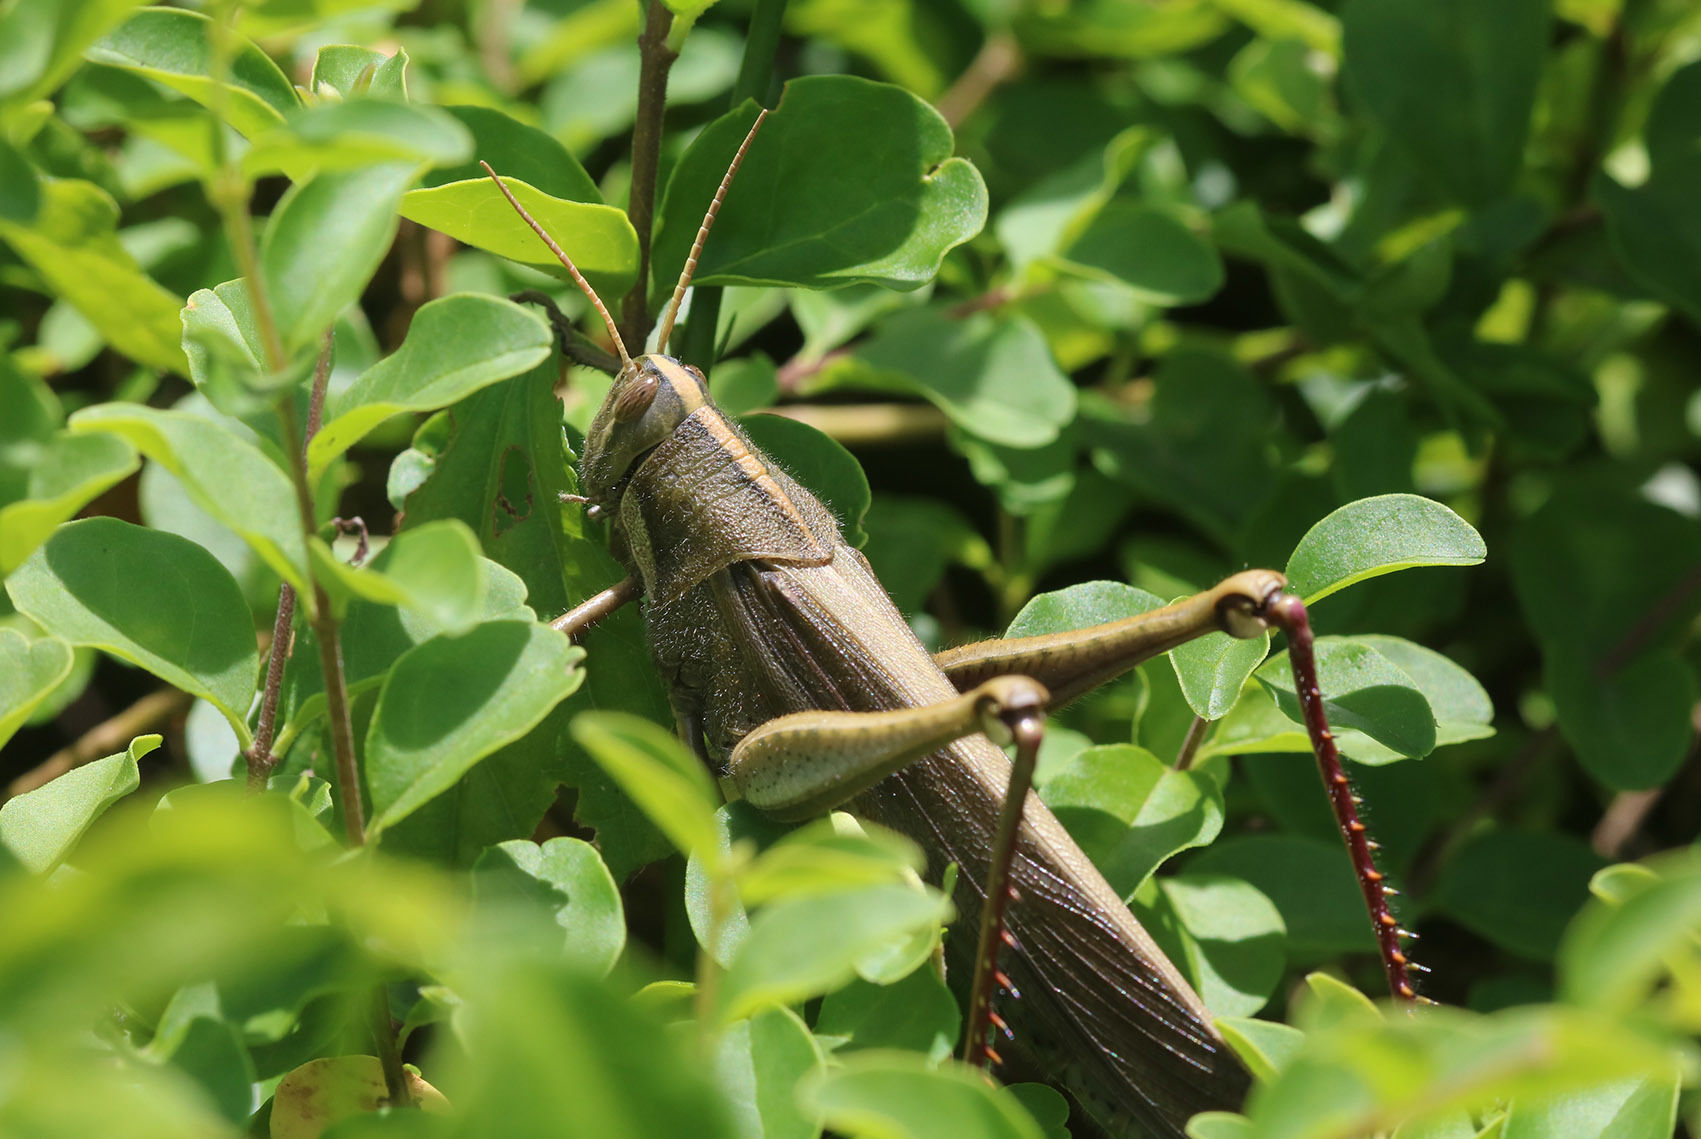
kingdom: Animalia
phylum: Arthropoda
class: Insecta
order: Orthoptera
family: Acrididae
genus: Schistocerca
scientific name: Schistocerca flavofasciata
